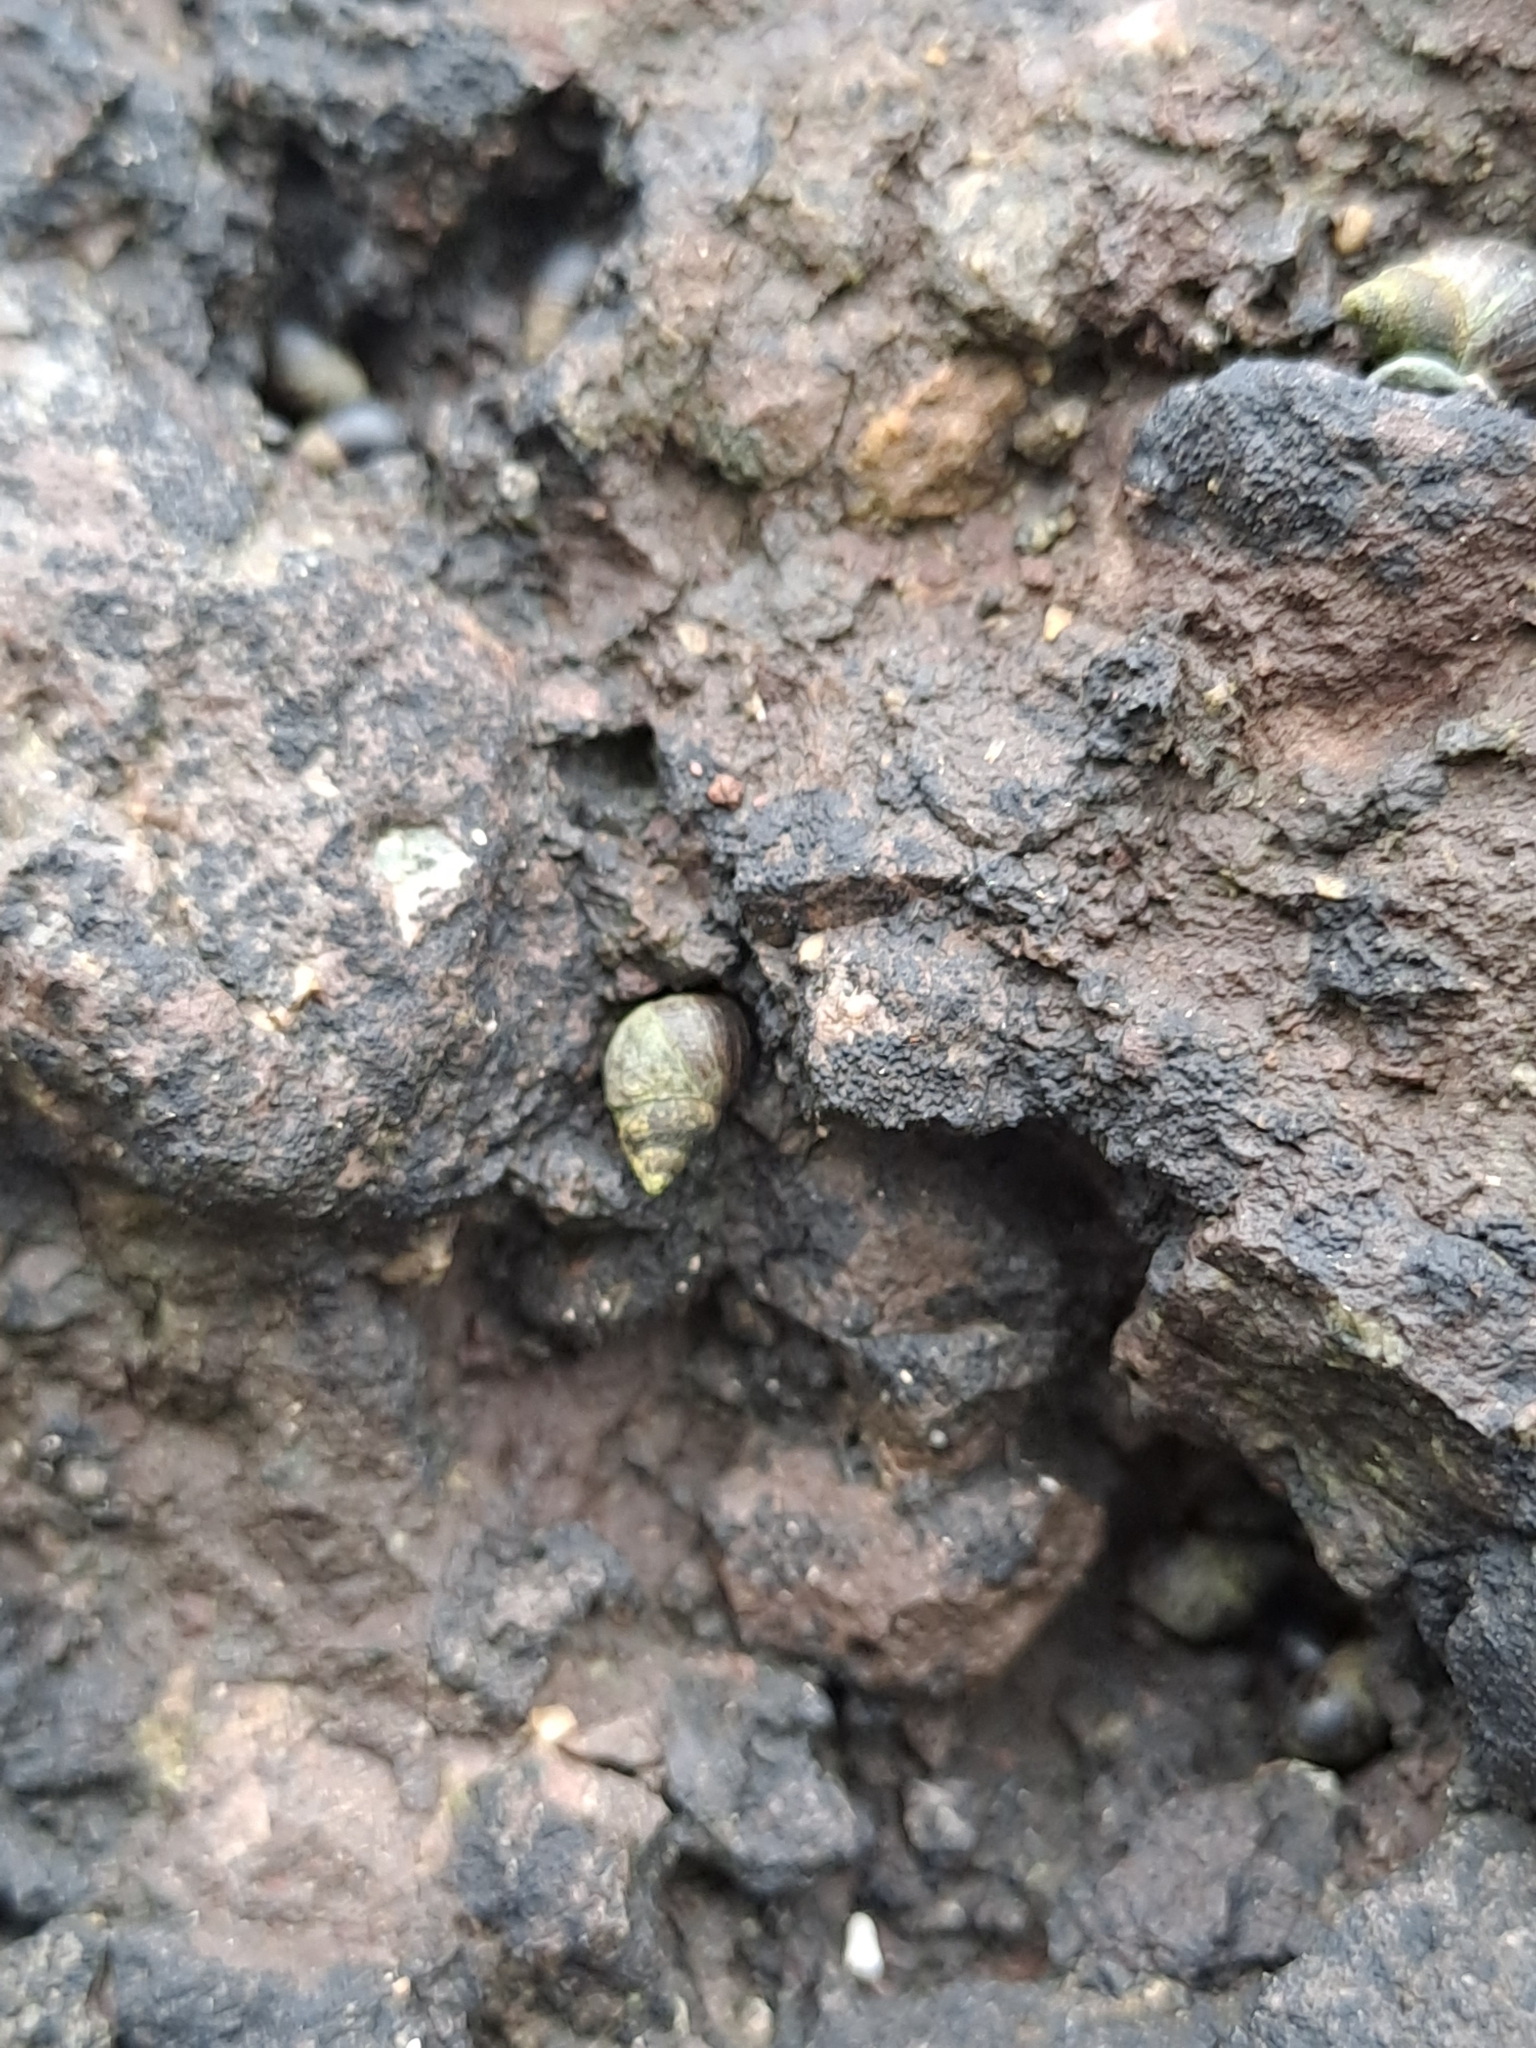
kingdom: Animalia
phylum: Mollusca
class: Gastropoda
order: Littorinimorpha
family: Littorinidae
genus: Austrolittorina
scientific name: Austrolittorina araucana
